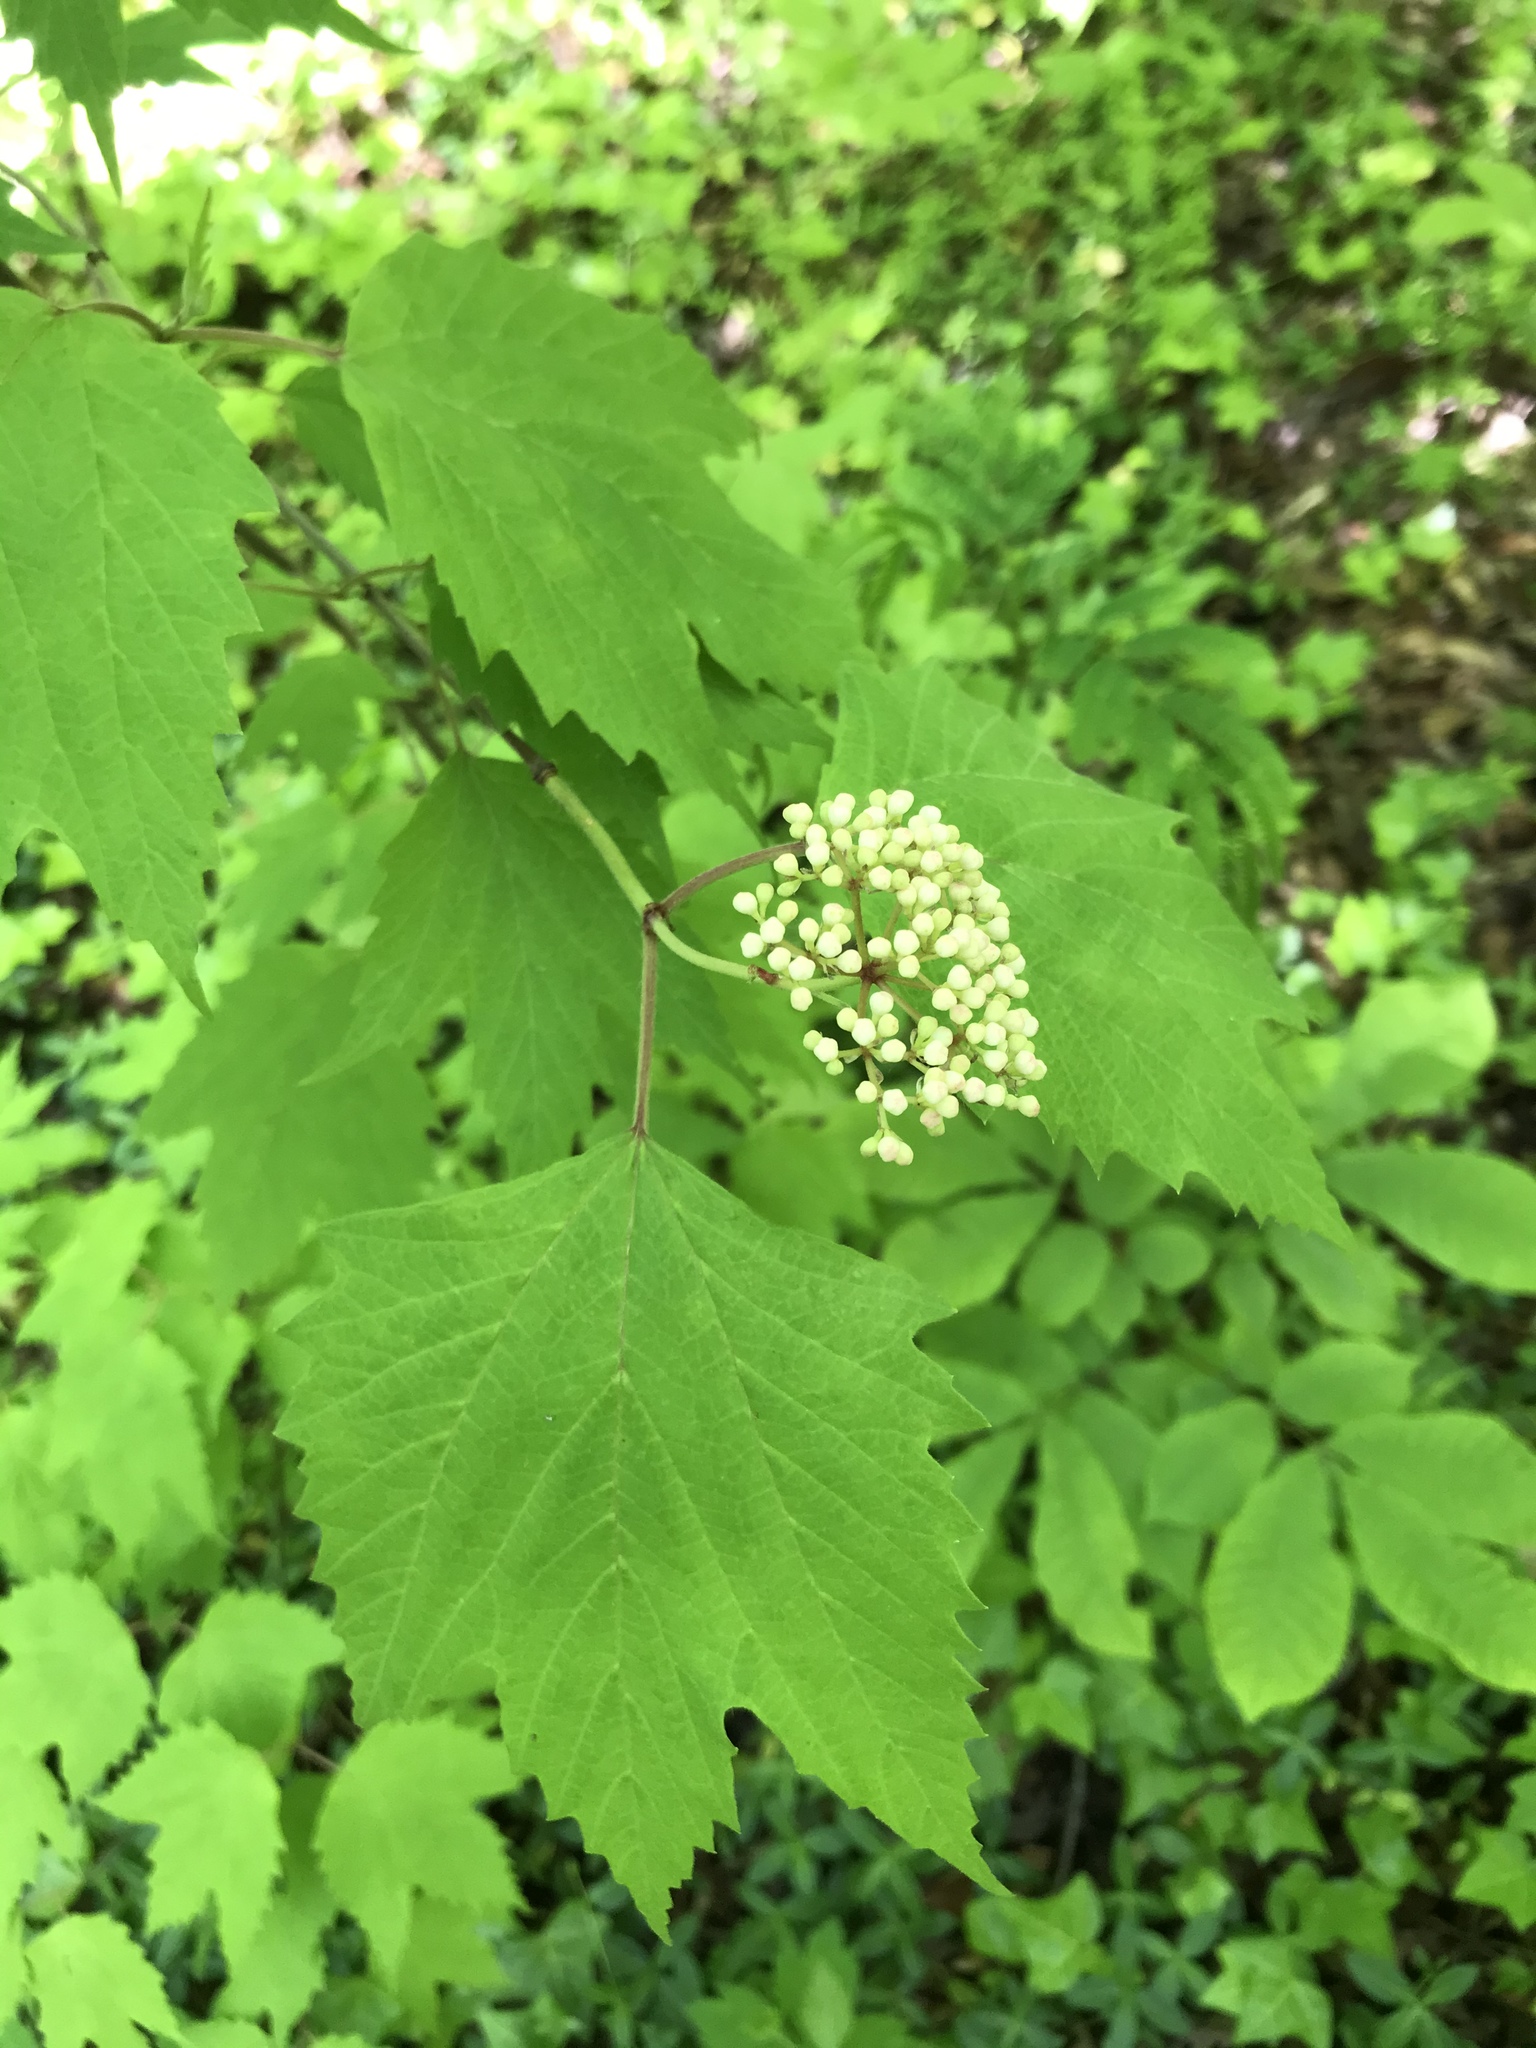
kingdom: Plantae
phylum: Tracheophyta
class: Magnoliopsida
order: Dipsacales
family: Viburnaceae
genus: Viburnum
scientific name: Viburnum acerifolium
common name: Dockmackie
